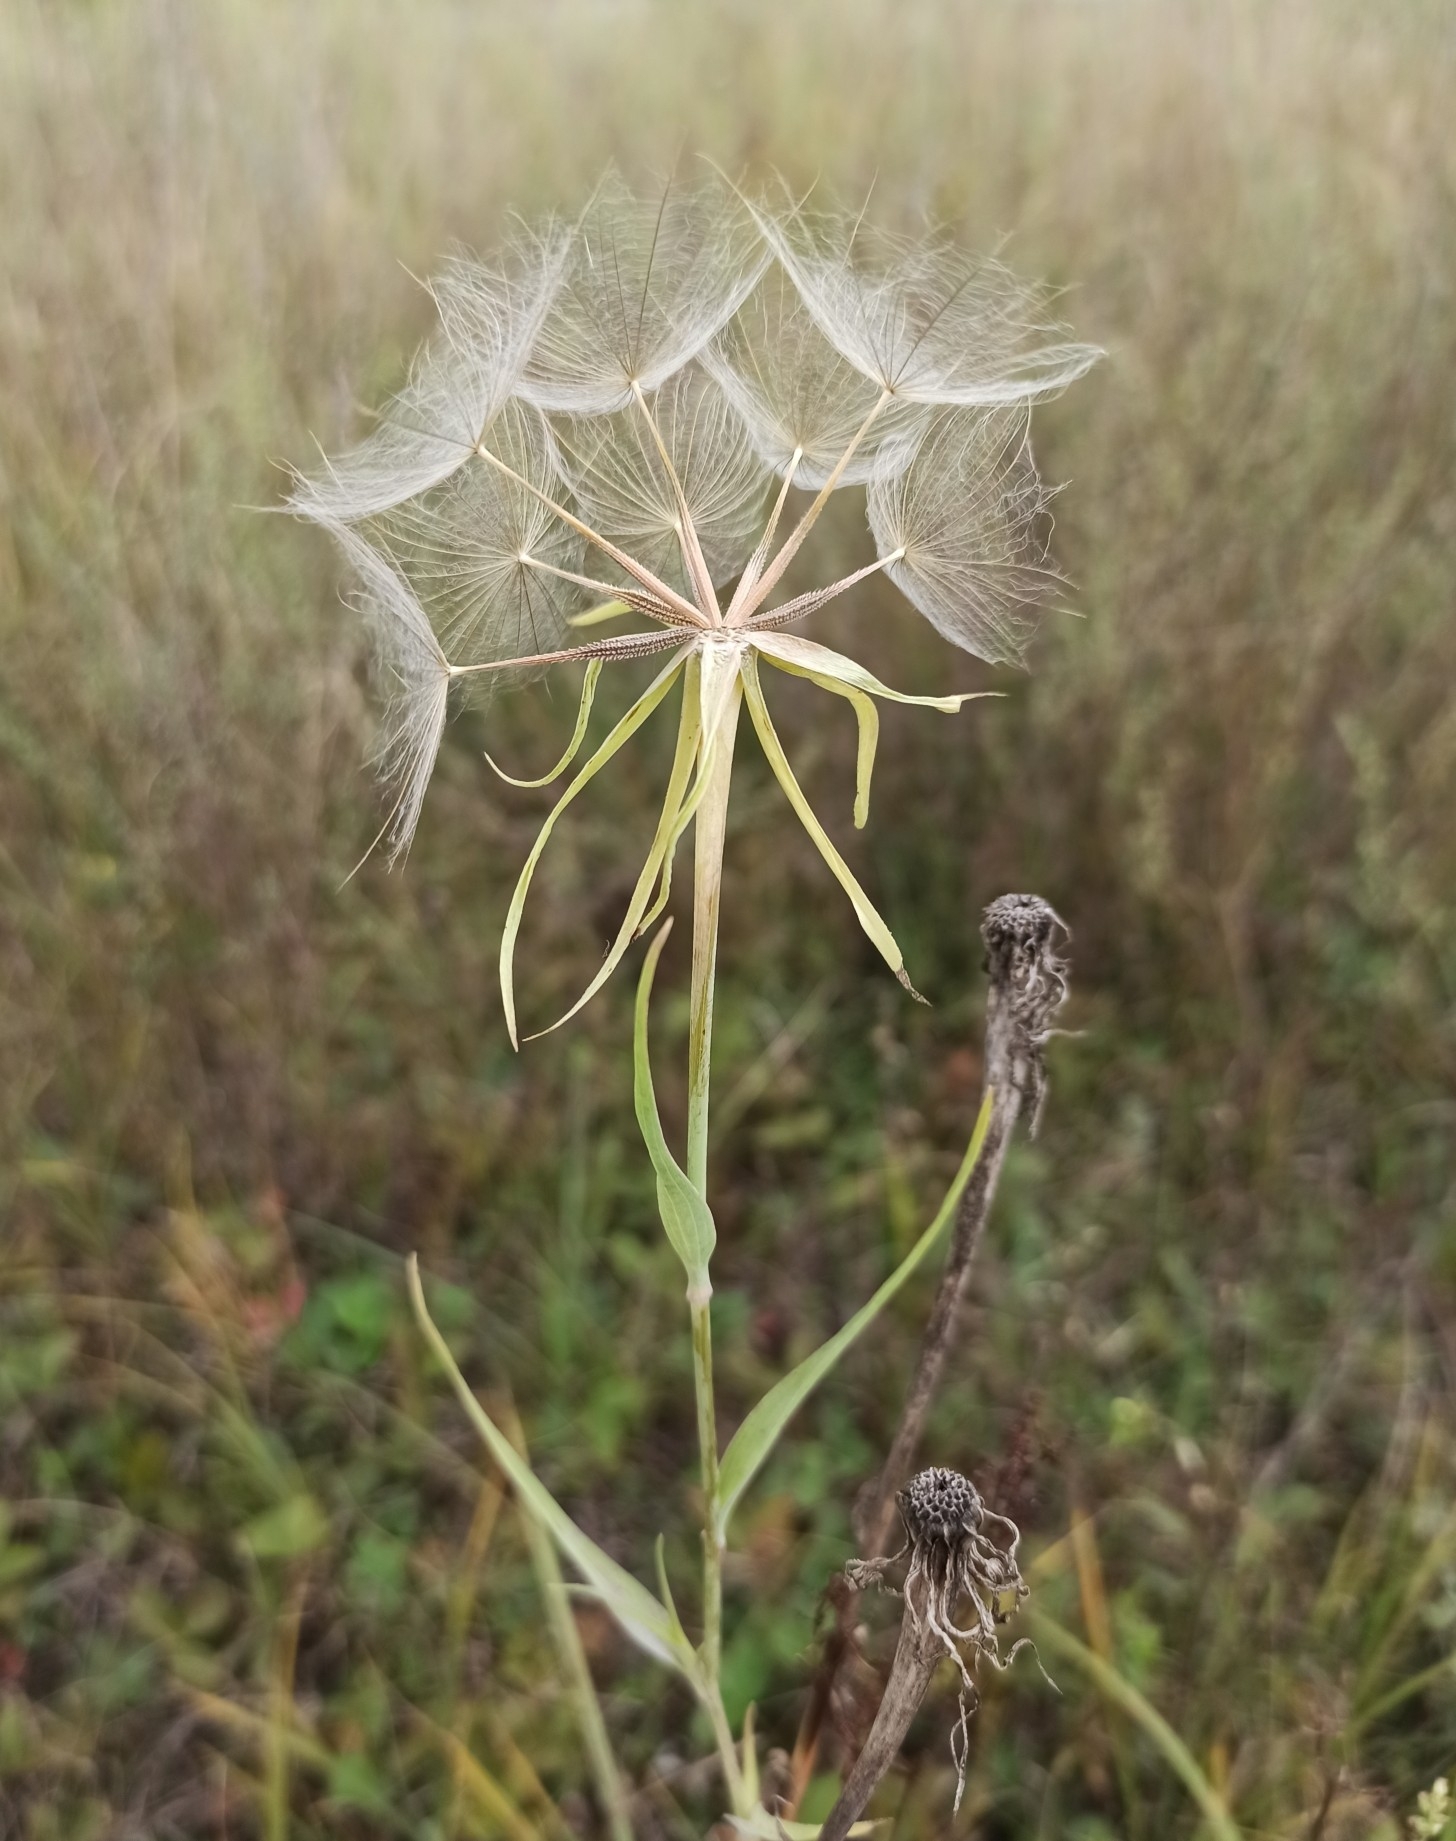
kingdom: Plantae
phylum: Tracheophyta
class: Magnoliopsida
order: Asterales
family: Asteraceae
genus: Tragopogon
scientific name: Tragopogon dubius
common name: Yellow salsify
